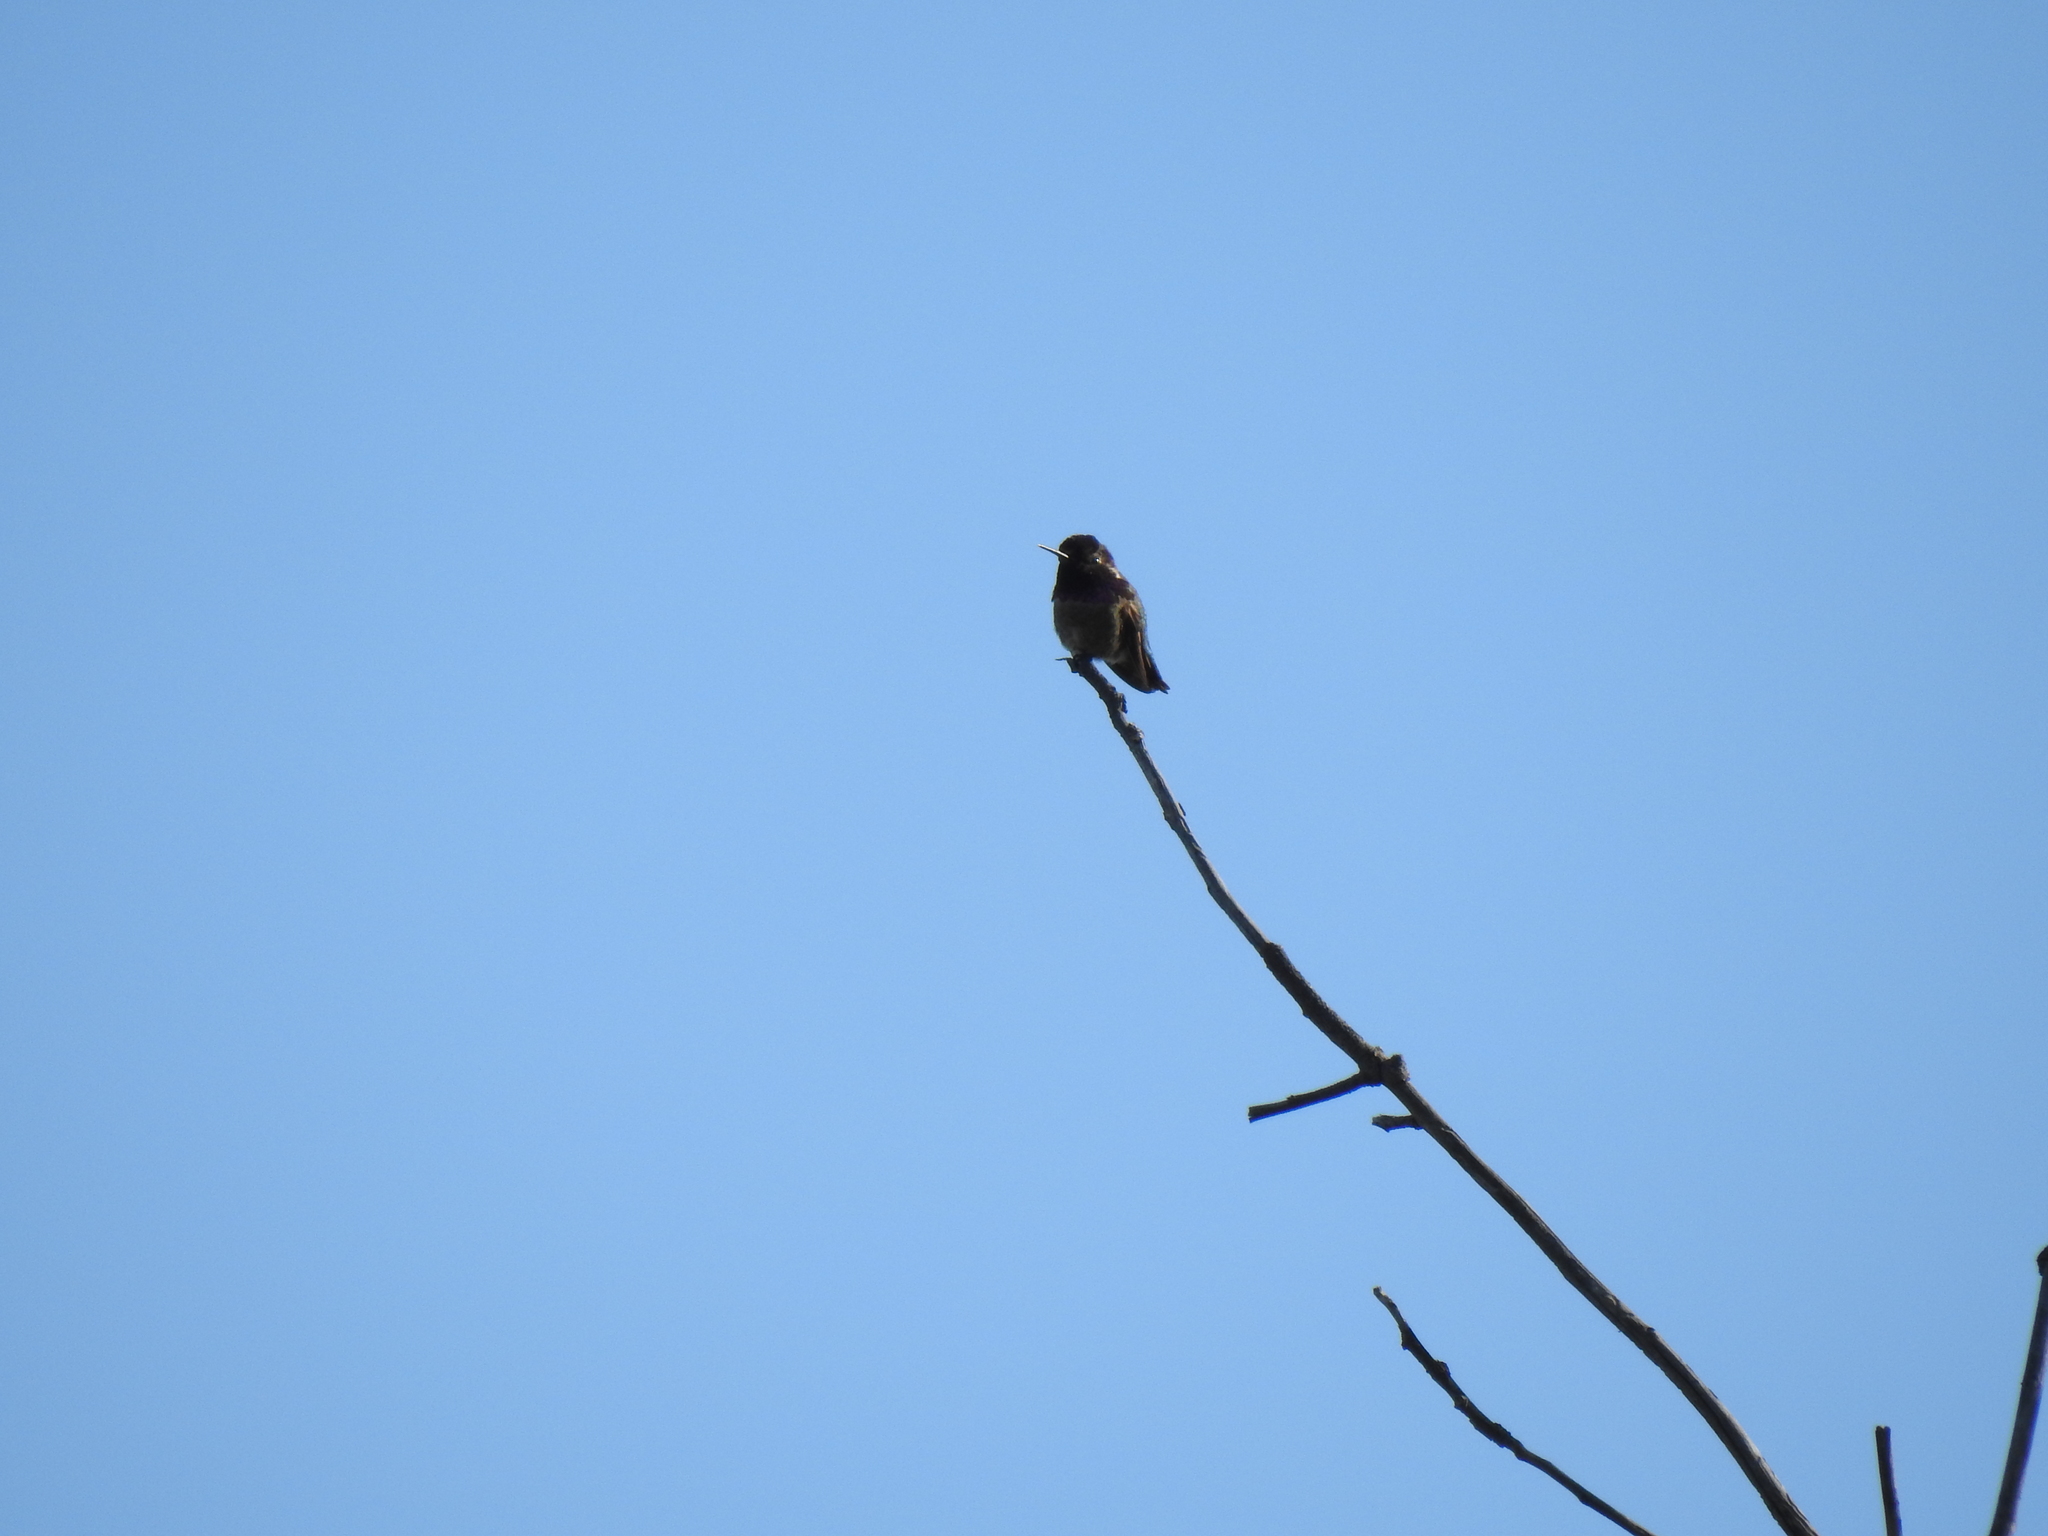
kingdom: Animalia
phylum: Chordata
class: Aves
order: Apodiformes
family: Trochilidae
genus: Calypte
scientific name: Calypte anna
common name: Anna's hummingbird
